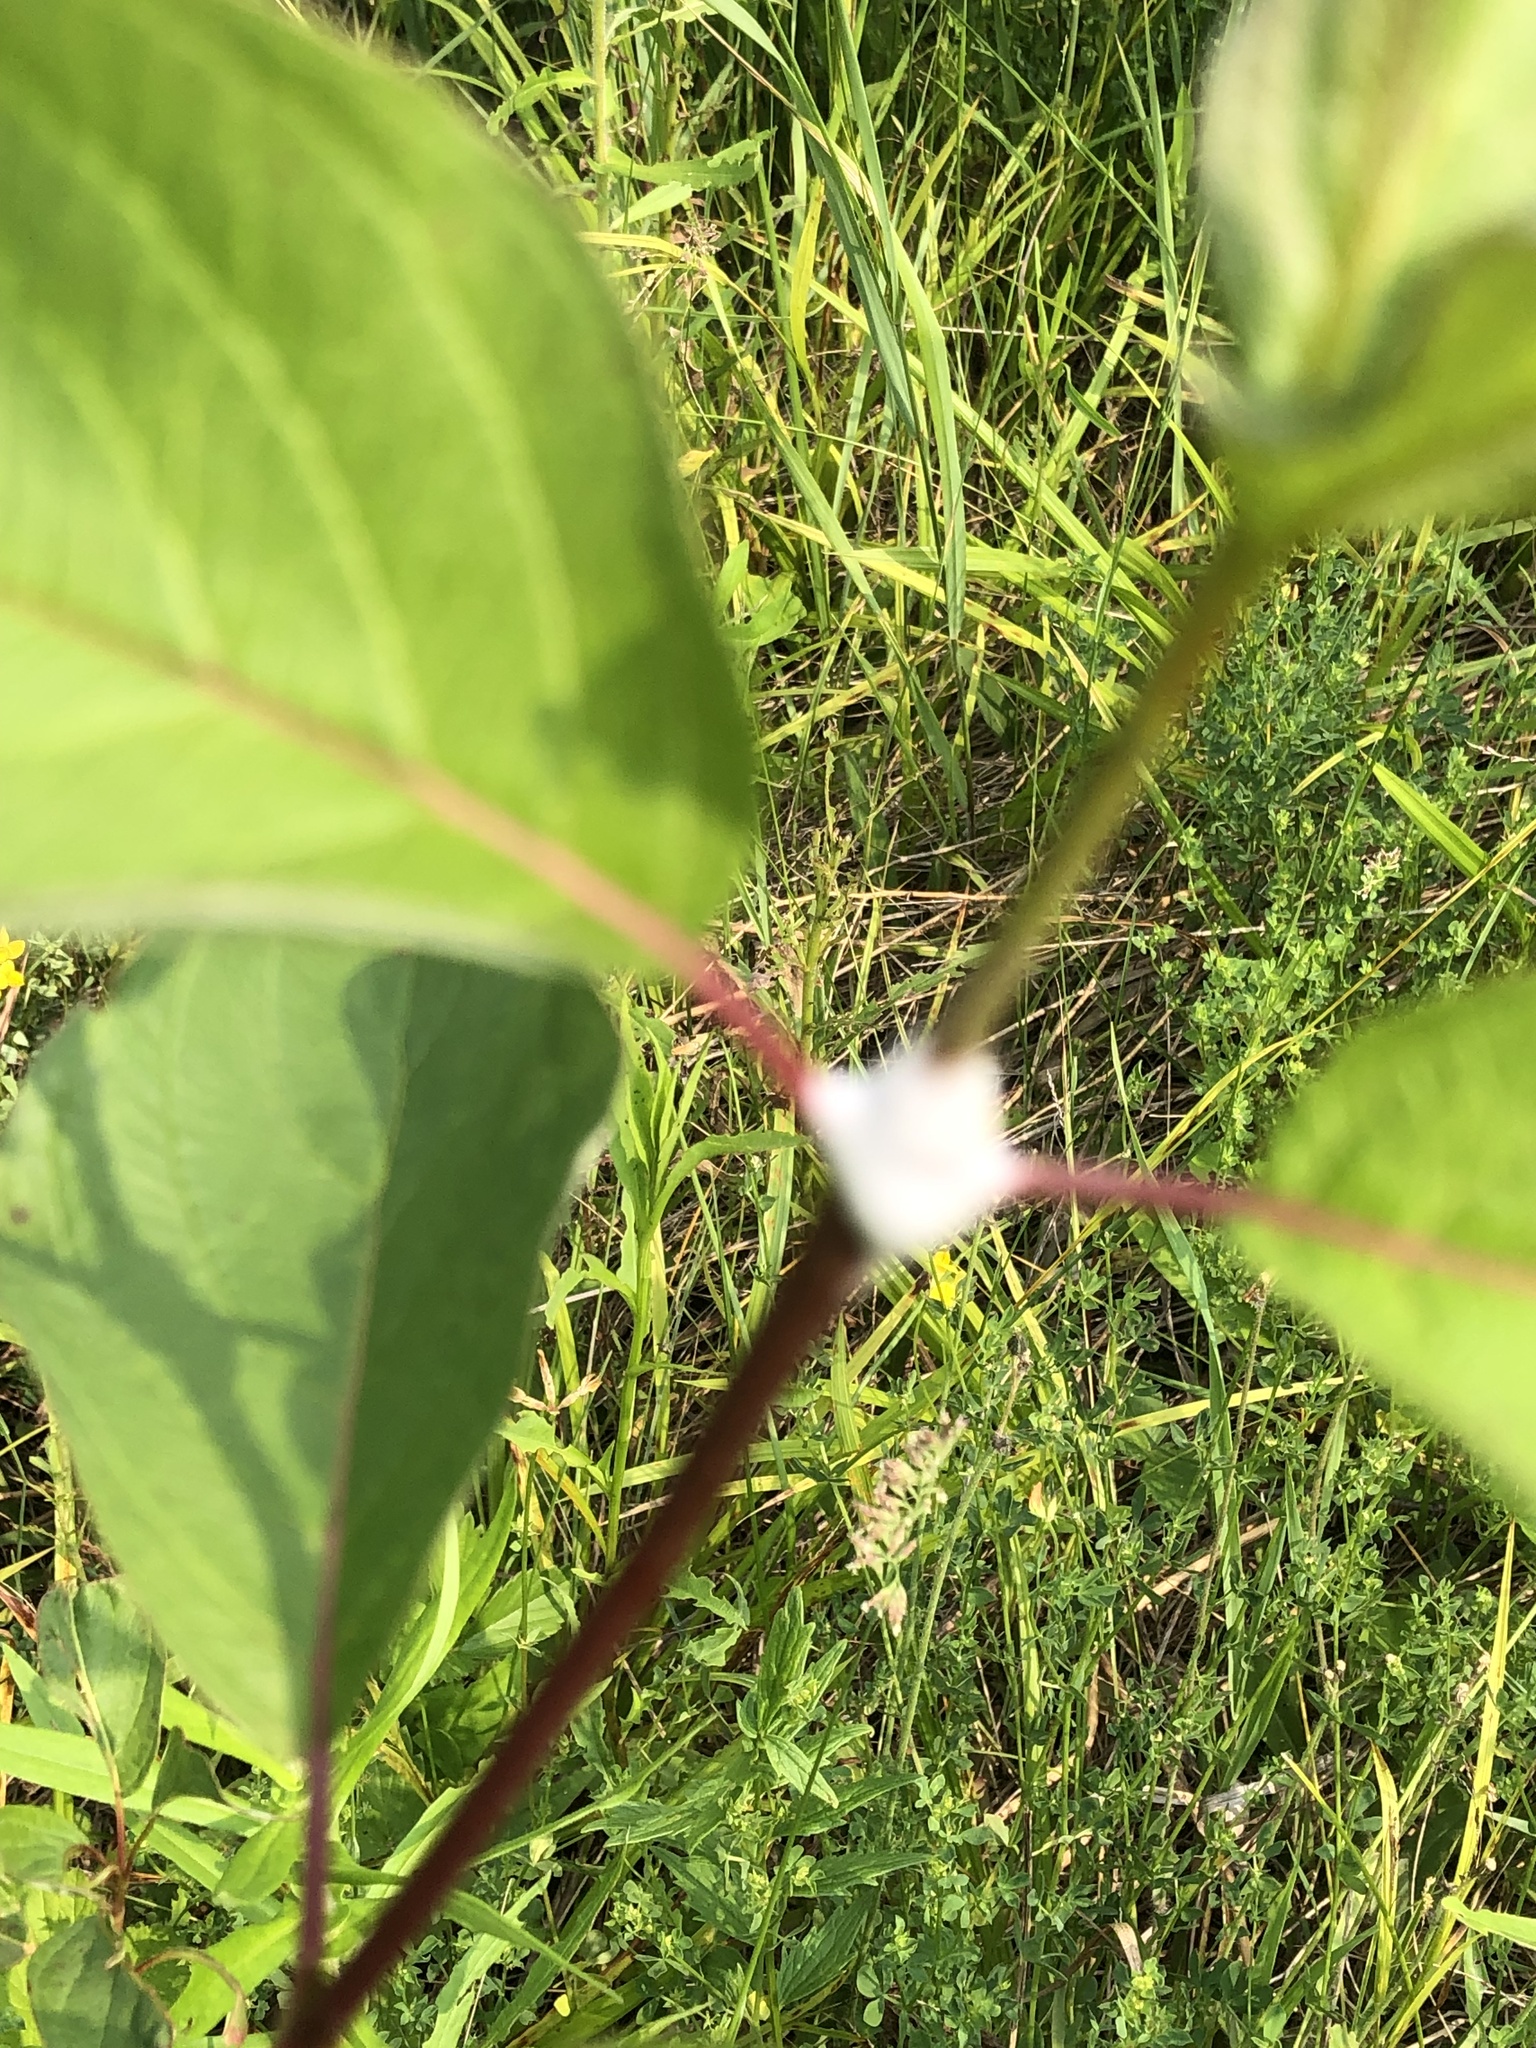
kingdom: Animalia
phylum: Arthropoda
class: Insecta
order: Hemiptera
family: Clastopteridae
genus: Clastoptera
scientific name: Clastoptera proteus
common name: Dogwood spittlebug
